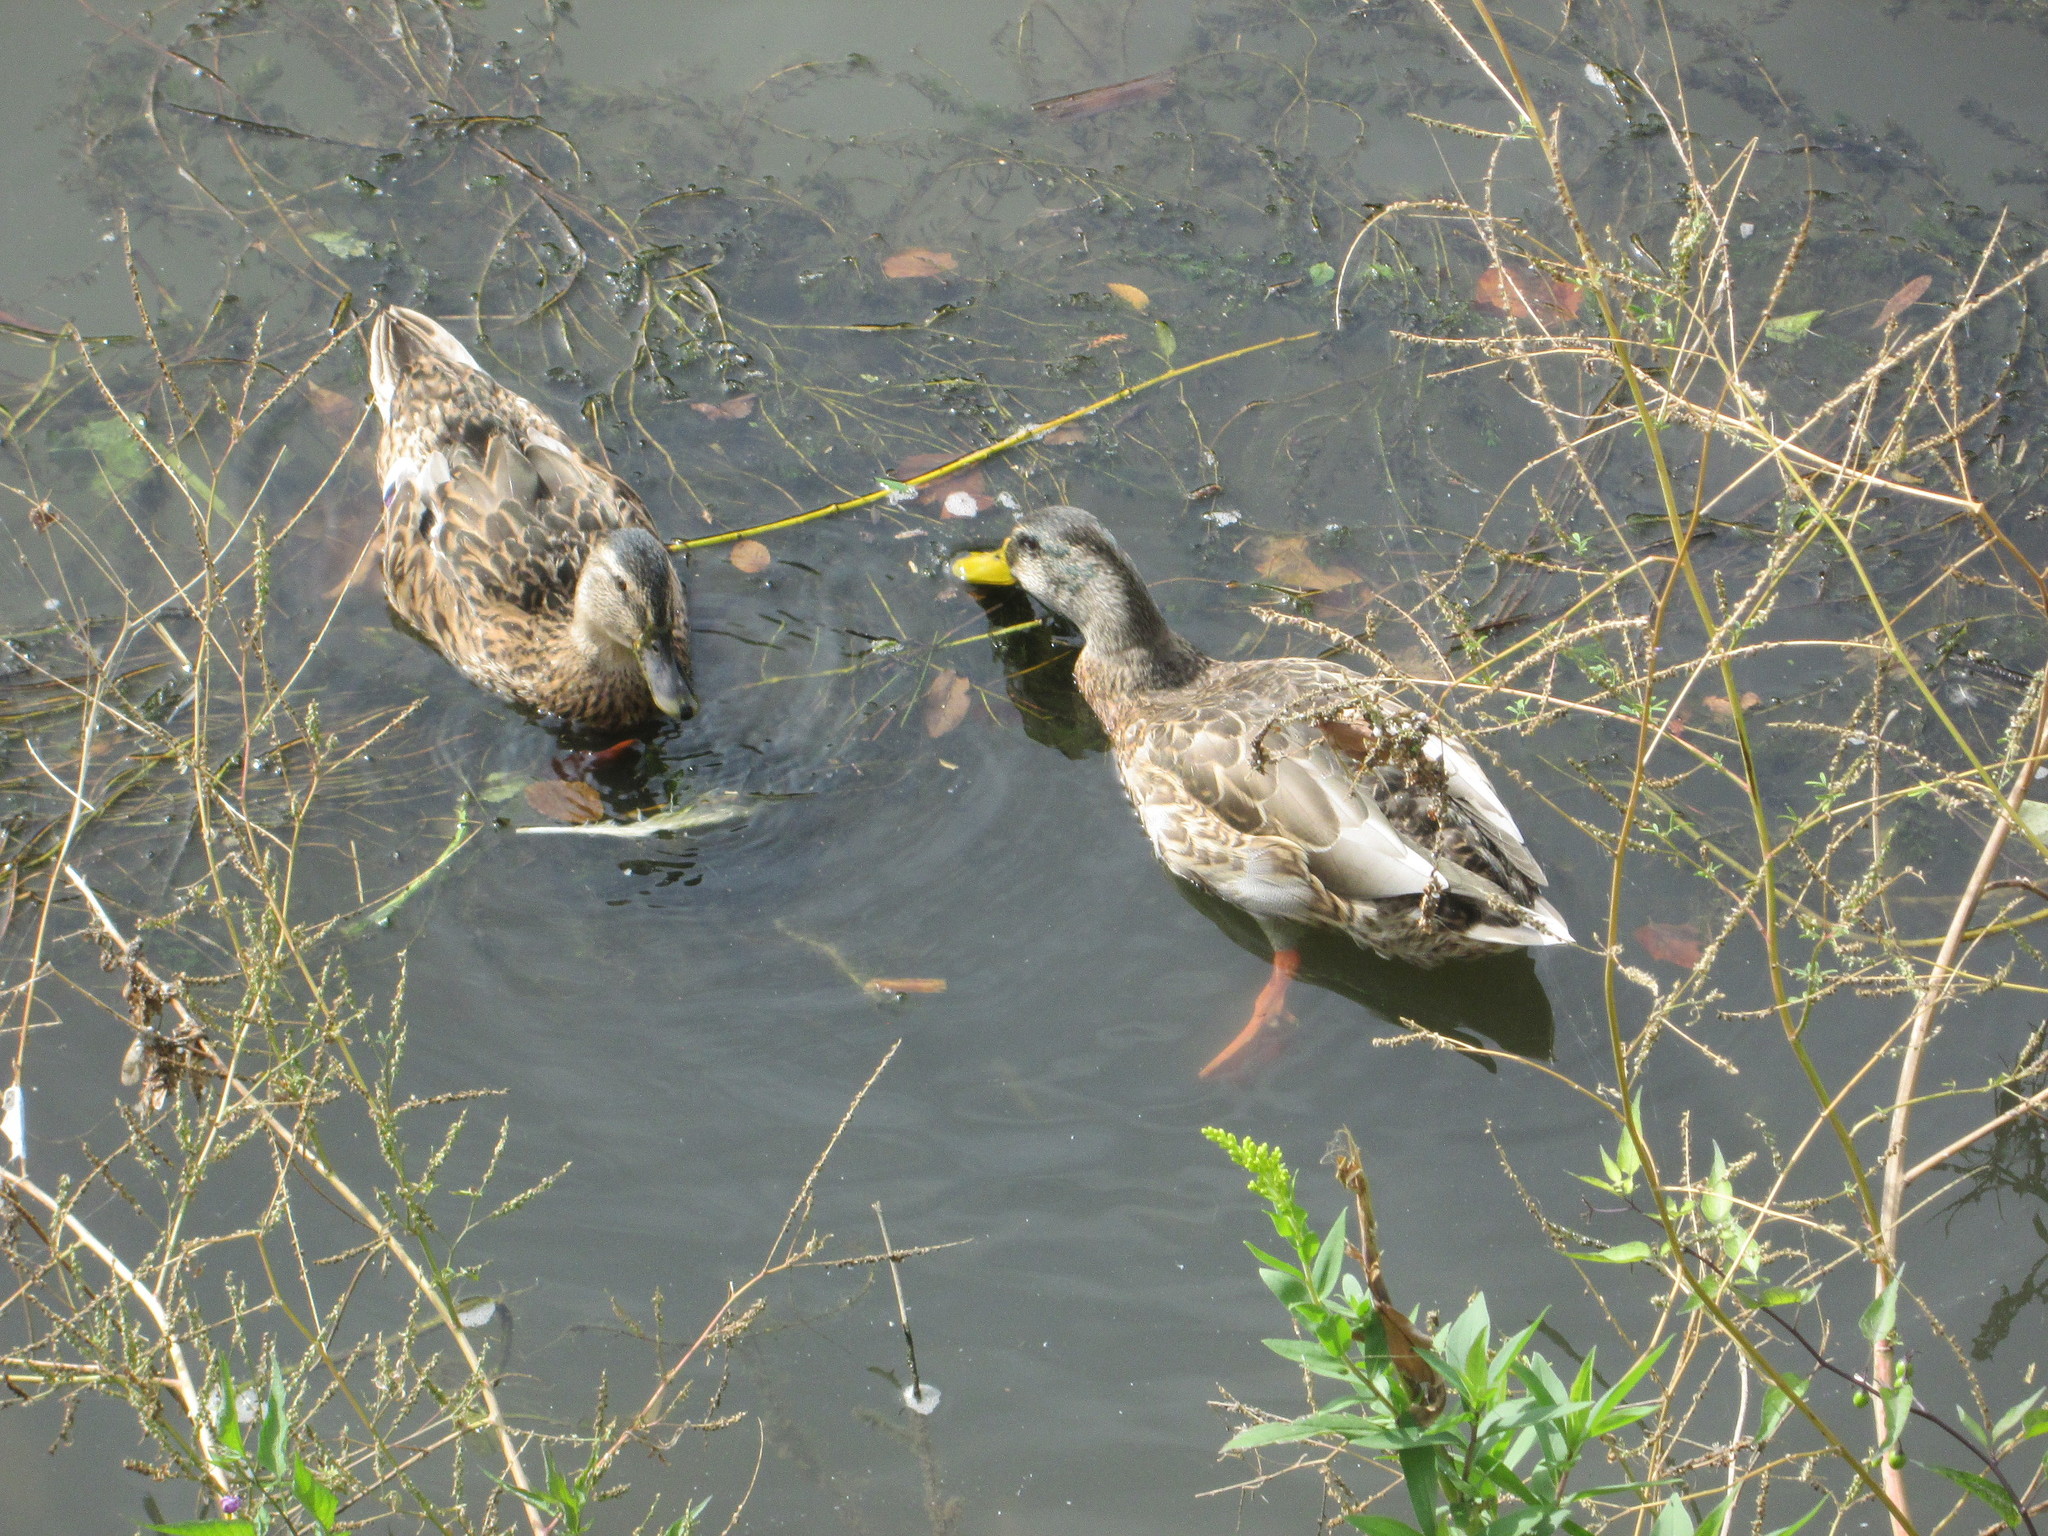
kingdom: Animalia
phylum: Chordata
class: Aves
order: Anseriformes
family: Anatidae
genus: Anas
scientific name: Anas platyrhynchos
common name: Mallard
